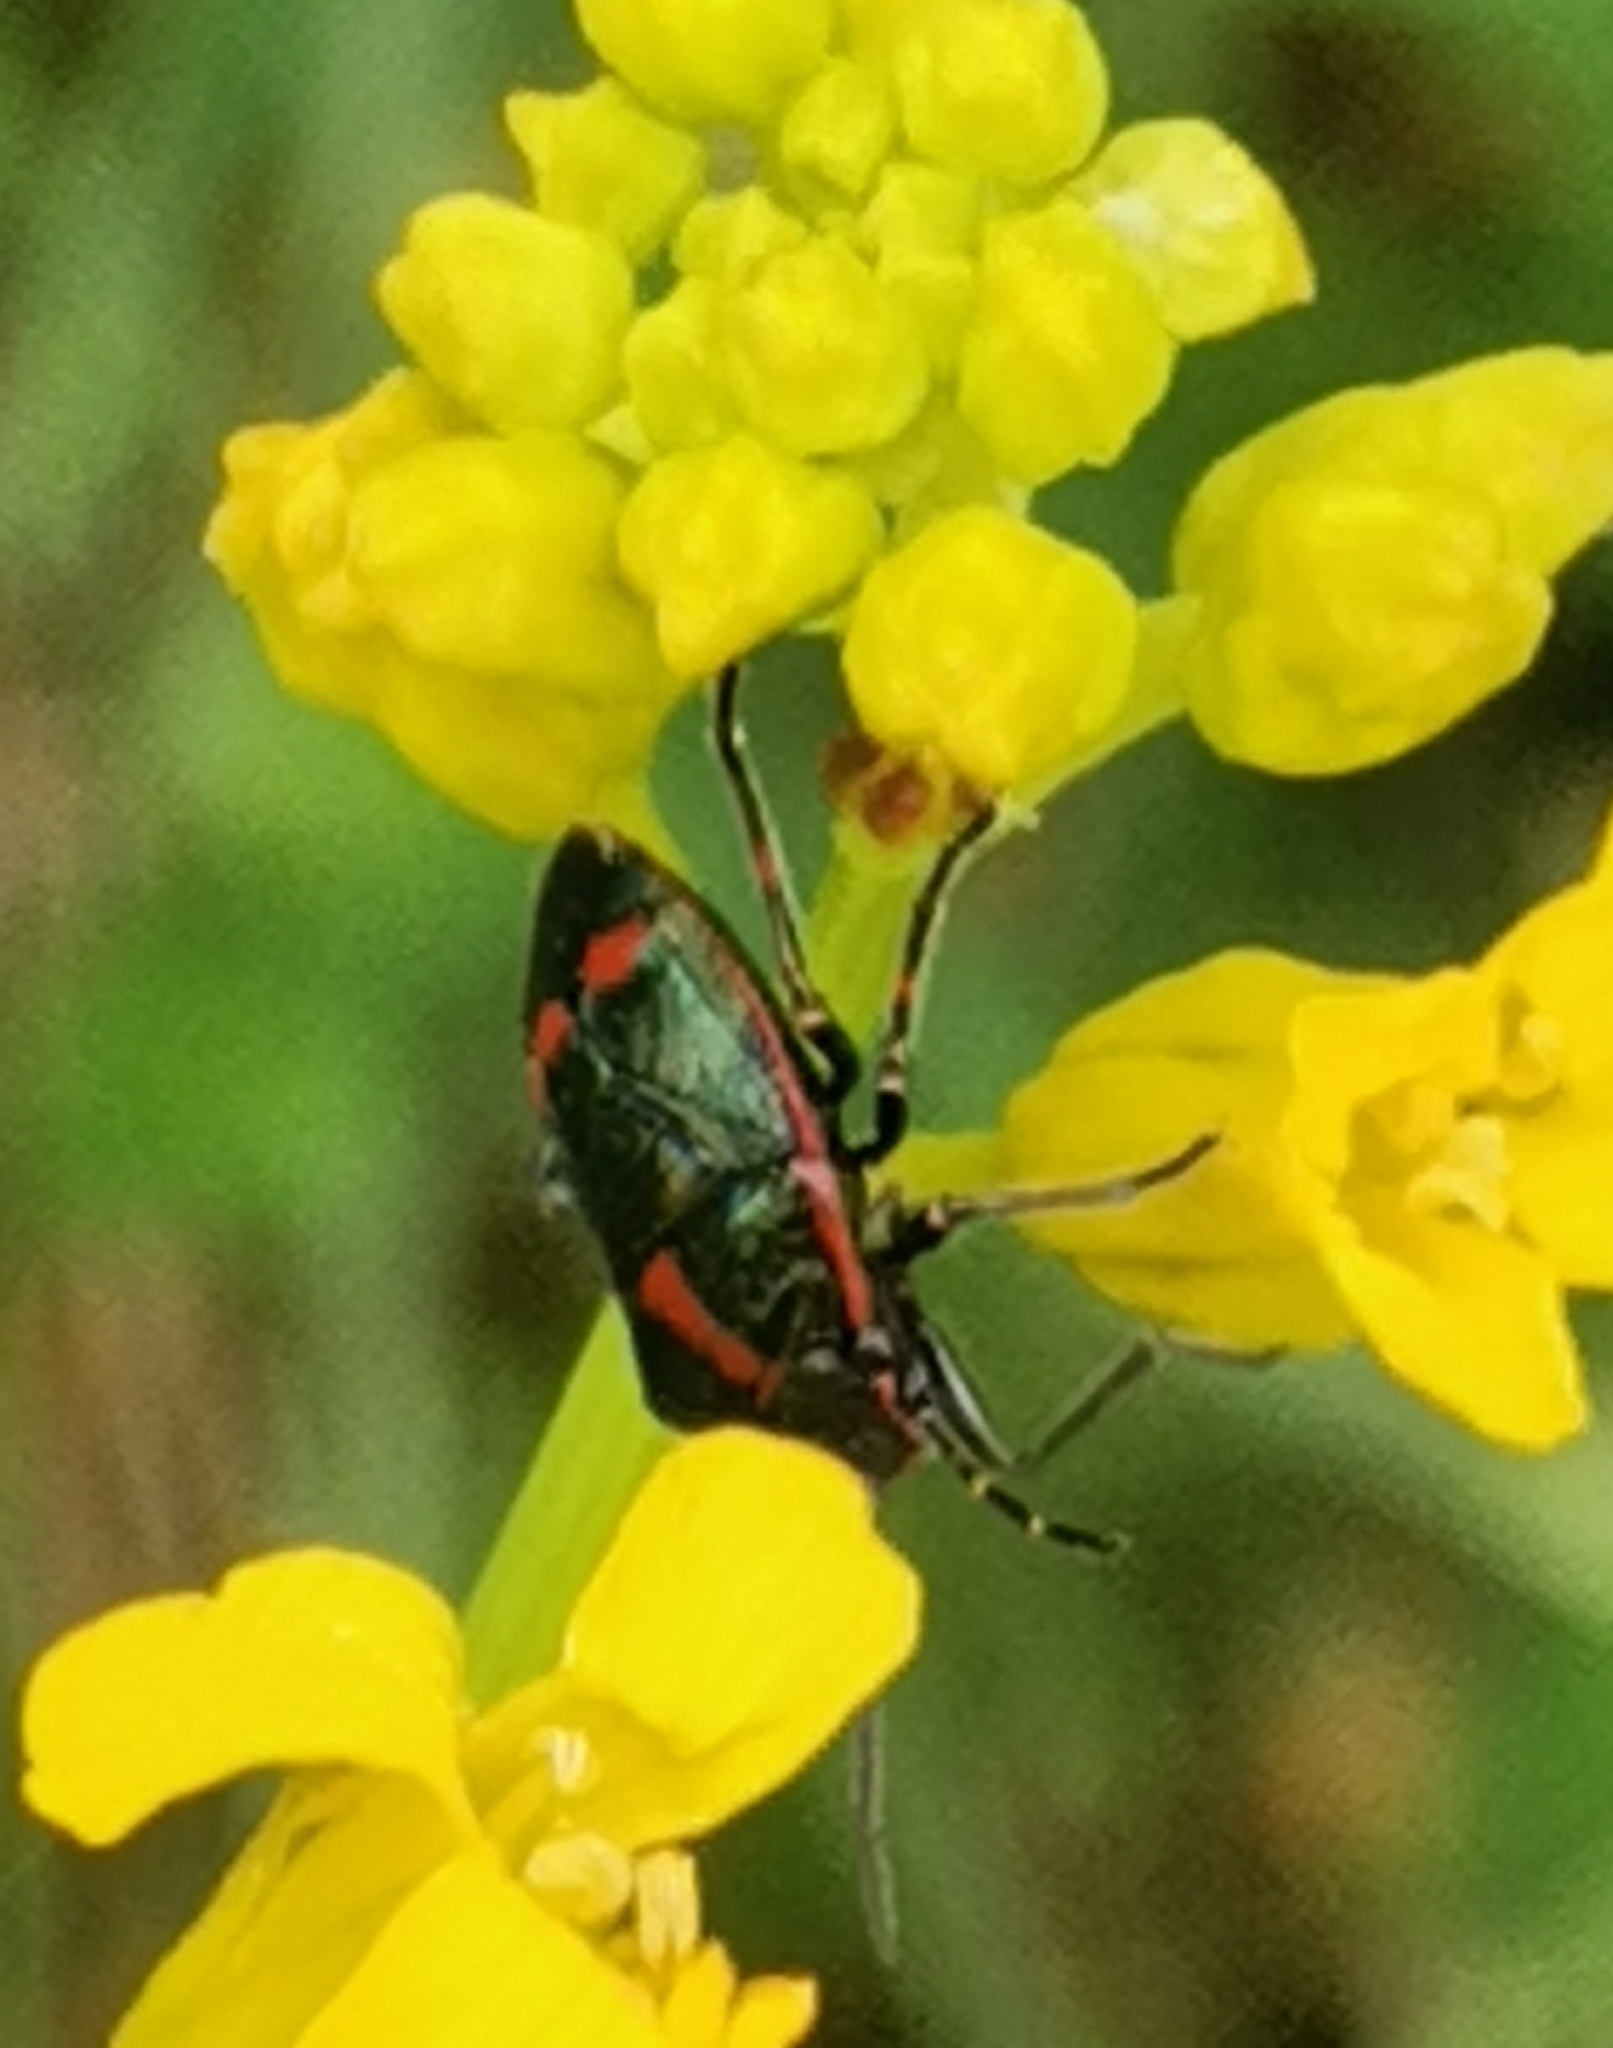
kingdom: Animalia
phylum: Arthropoda
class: Insecta
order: Hemiptera
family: Pentatomidae
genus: Eurydema
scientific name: Eurydema oleracea
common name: Cabbage bug
